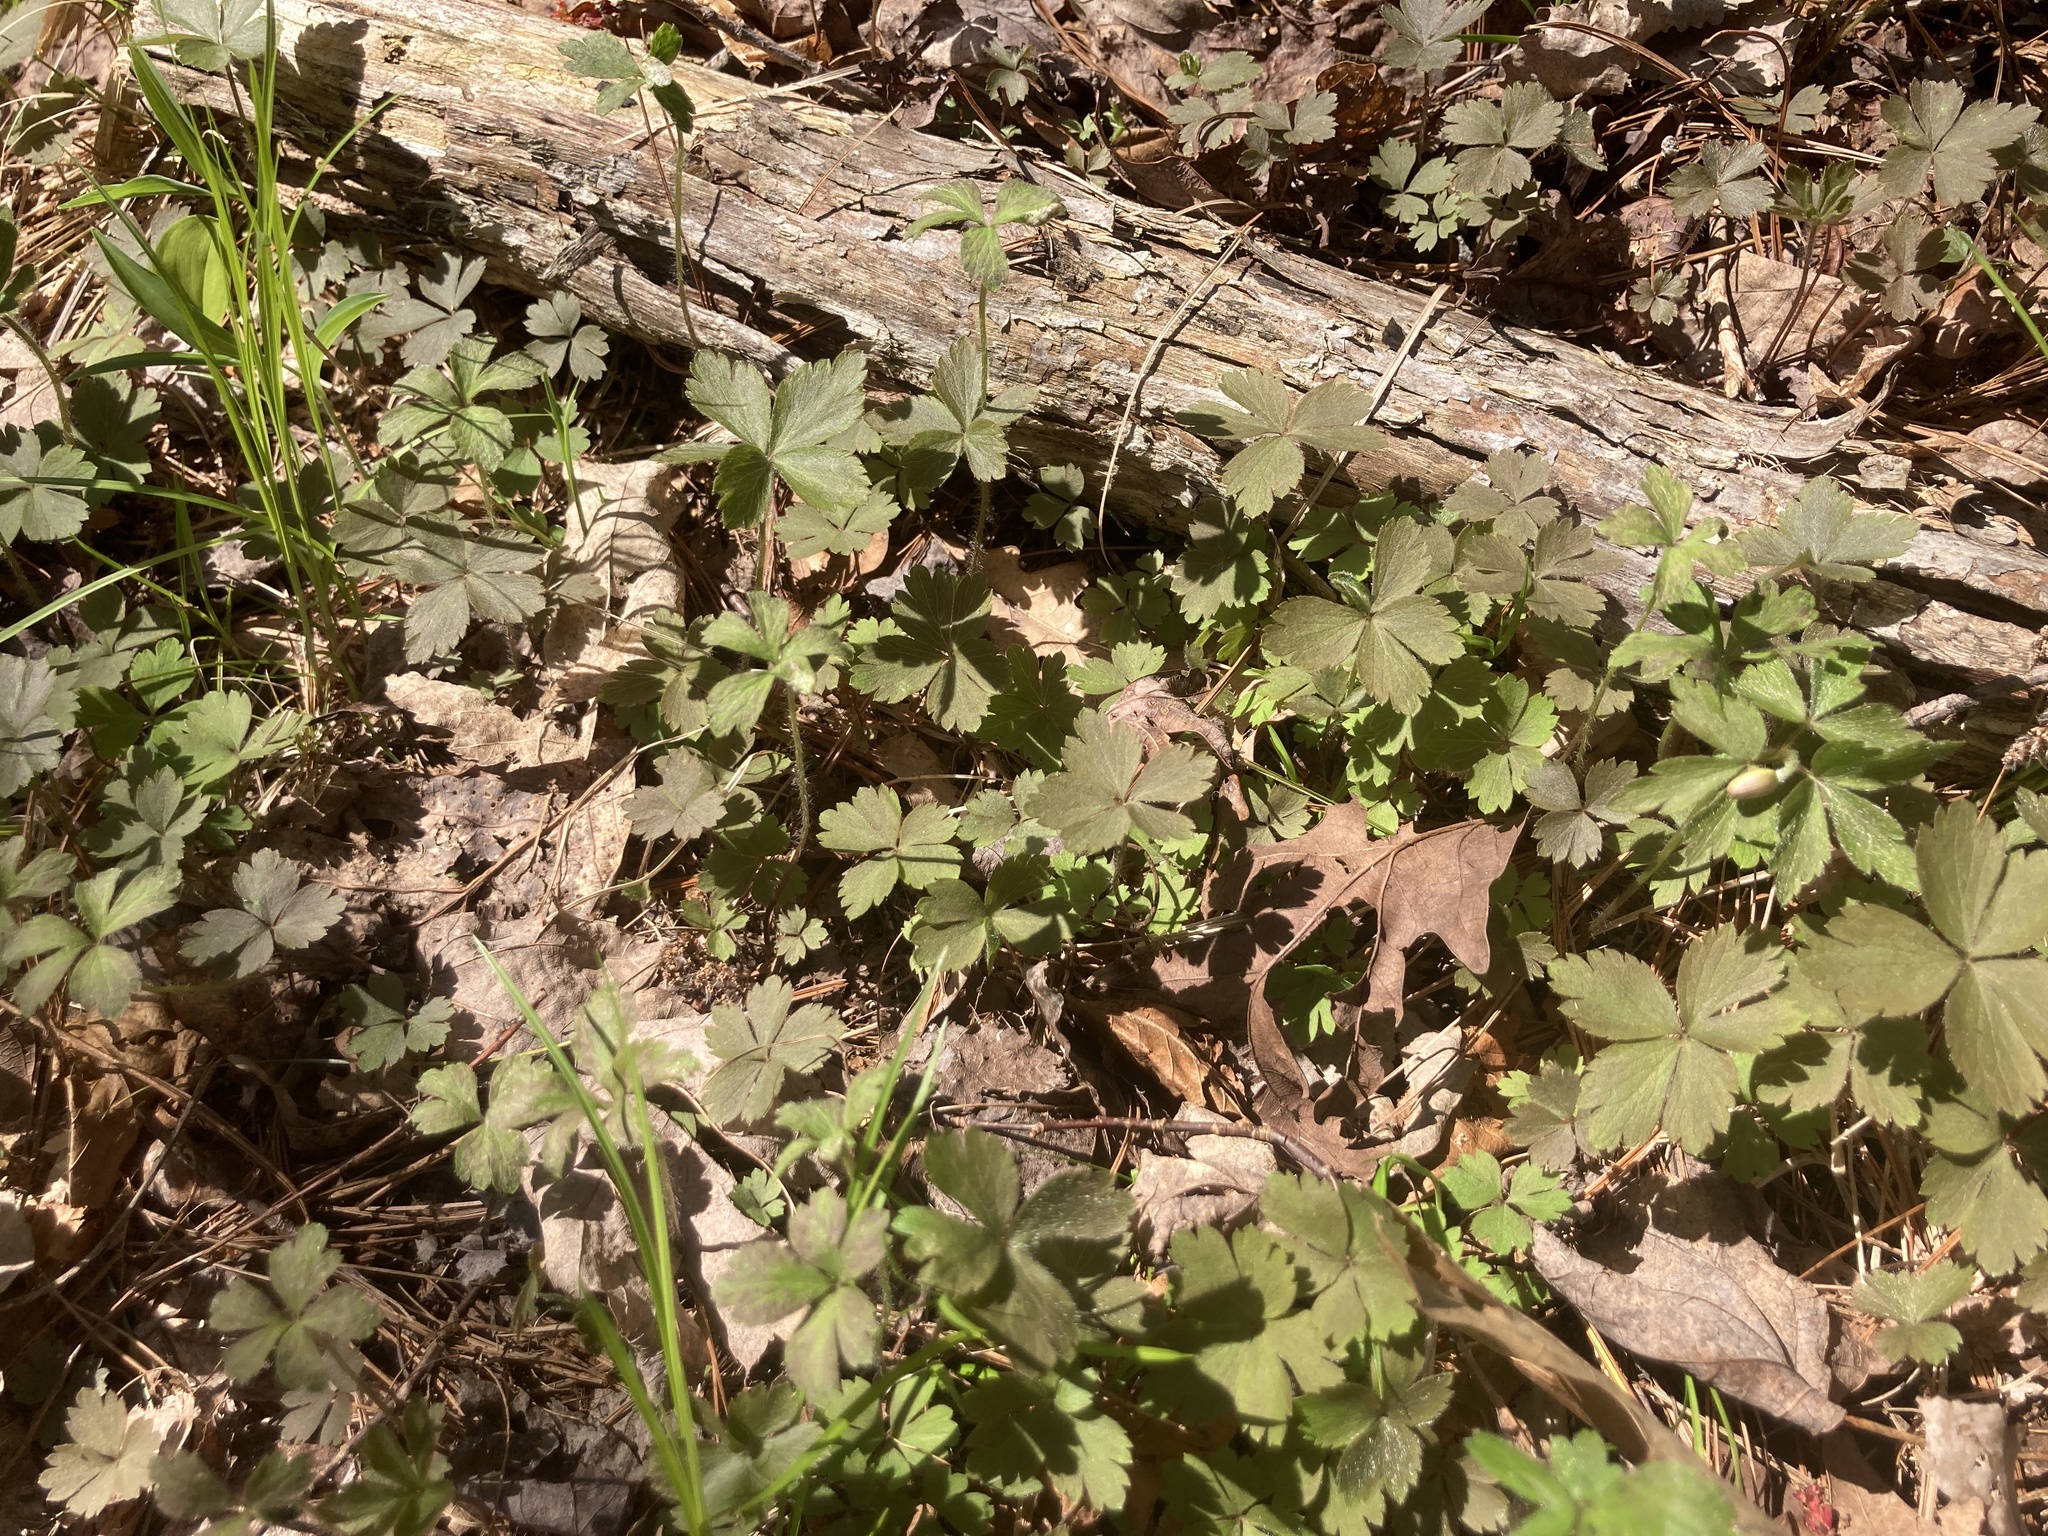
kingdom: Plantae
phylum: Tracheophyta
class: Magnoliopsida
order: Ranunculales
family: Ranunculaceae
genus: Anemone
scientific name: Anemone quinquefolia
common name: Wood anemone
